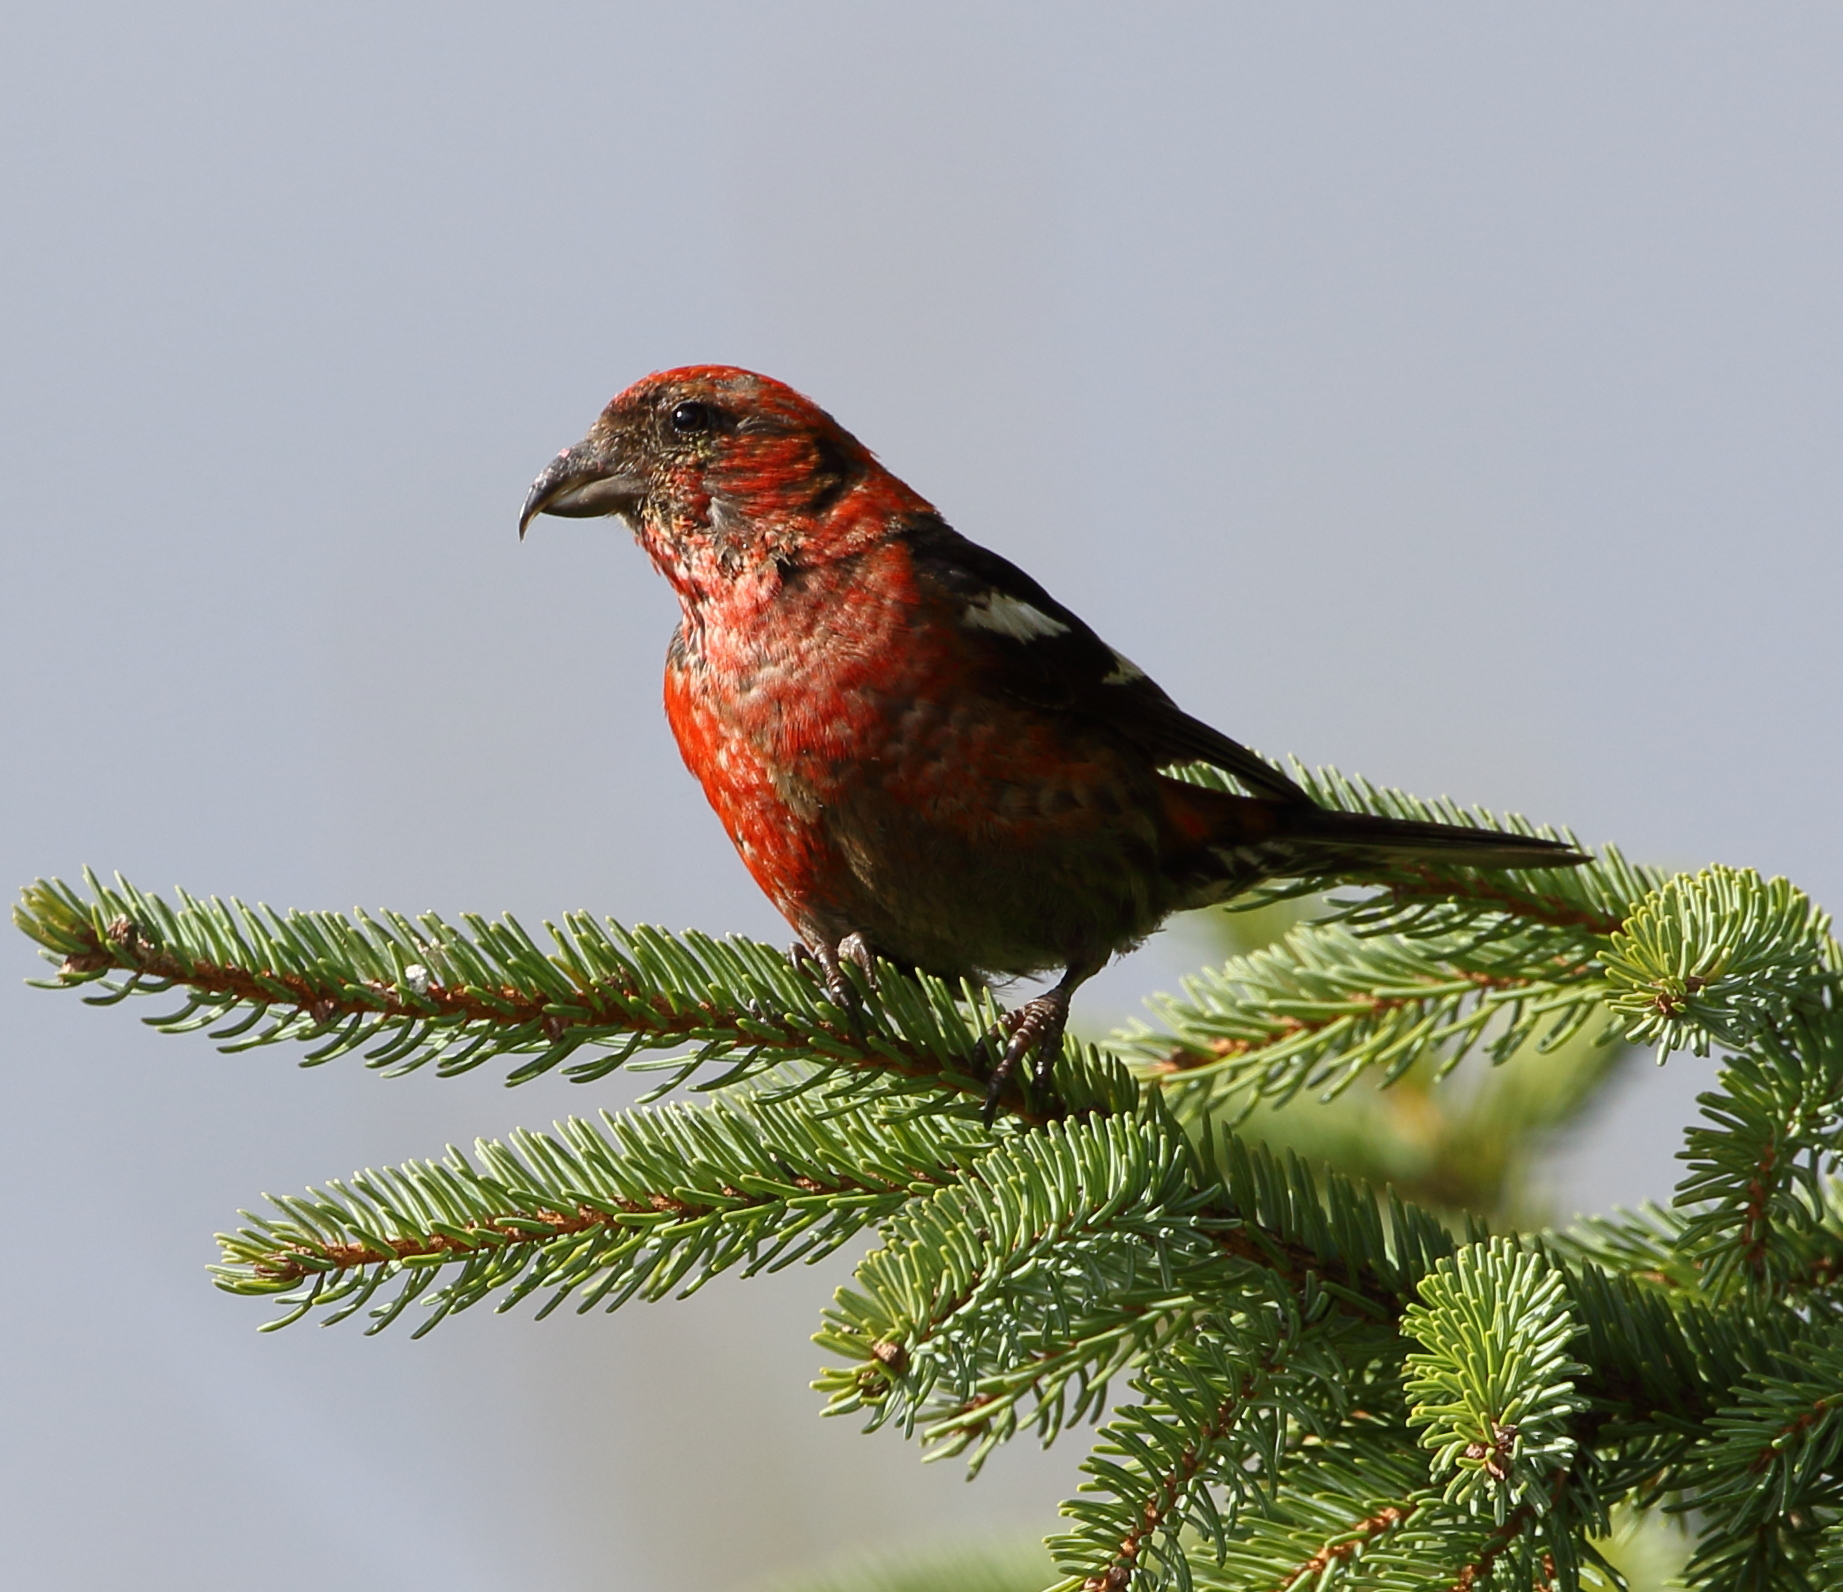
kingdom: Animalia
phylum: Chordata
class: Aves
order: Passeriformes
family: Fringillidae
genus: Loxia
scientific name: Loxia leucoptera
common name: Two-barred crossbill
